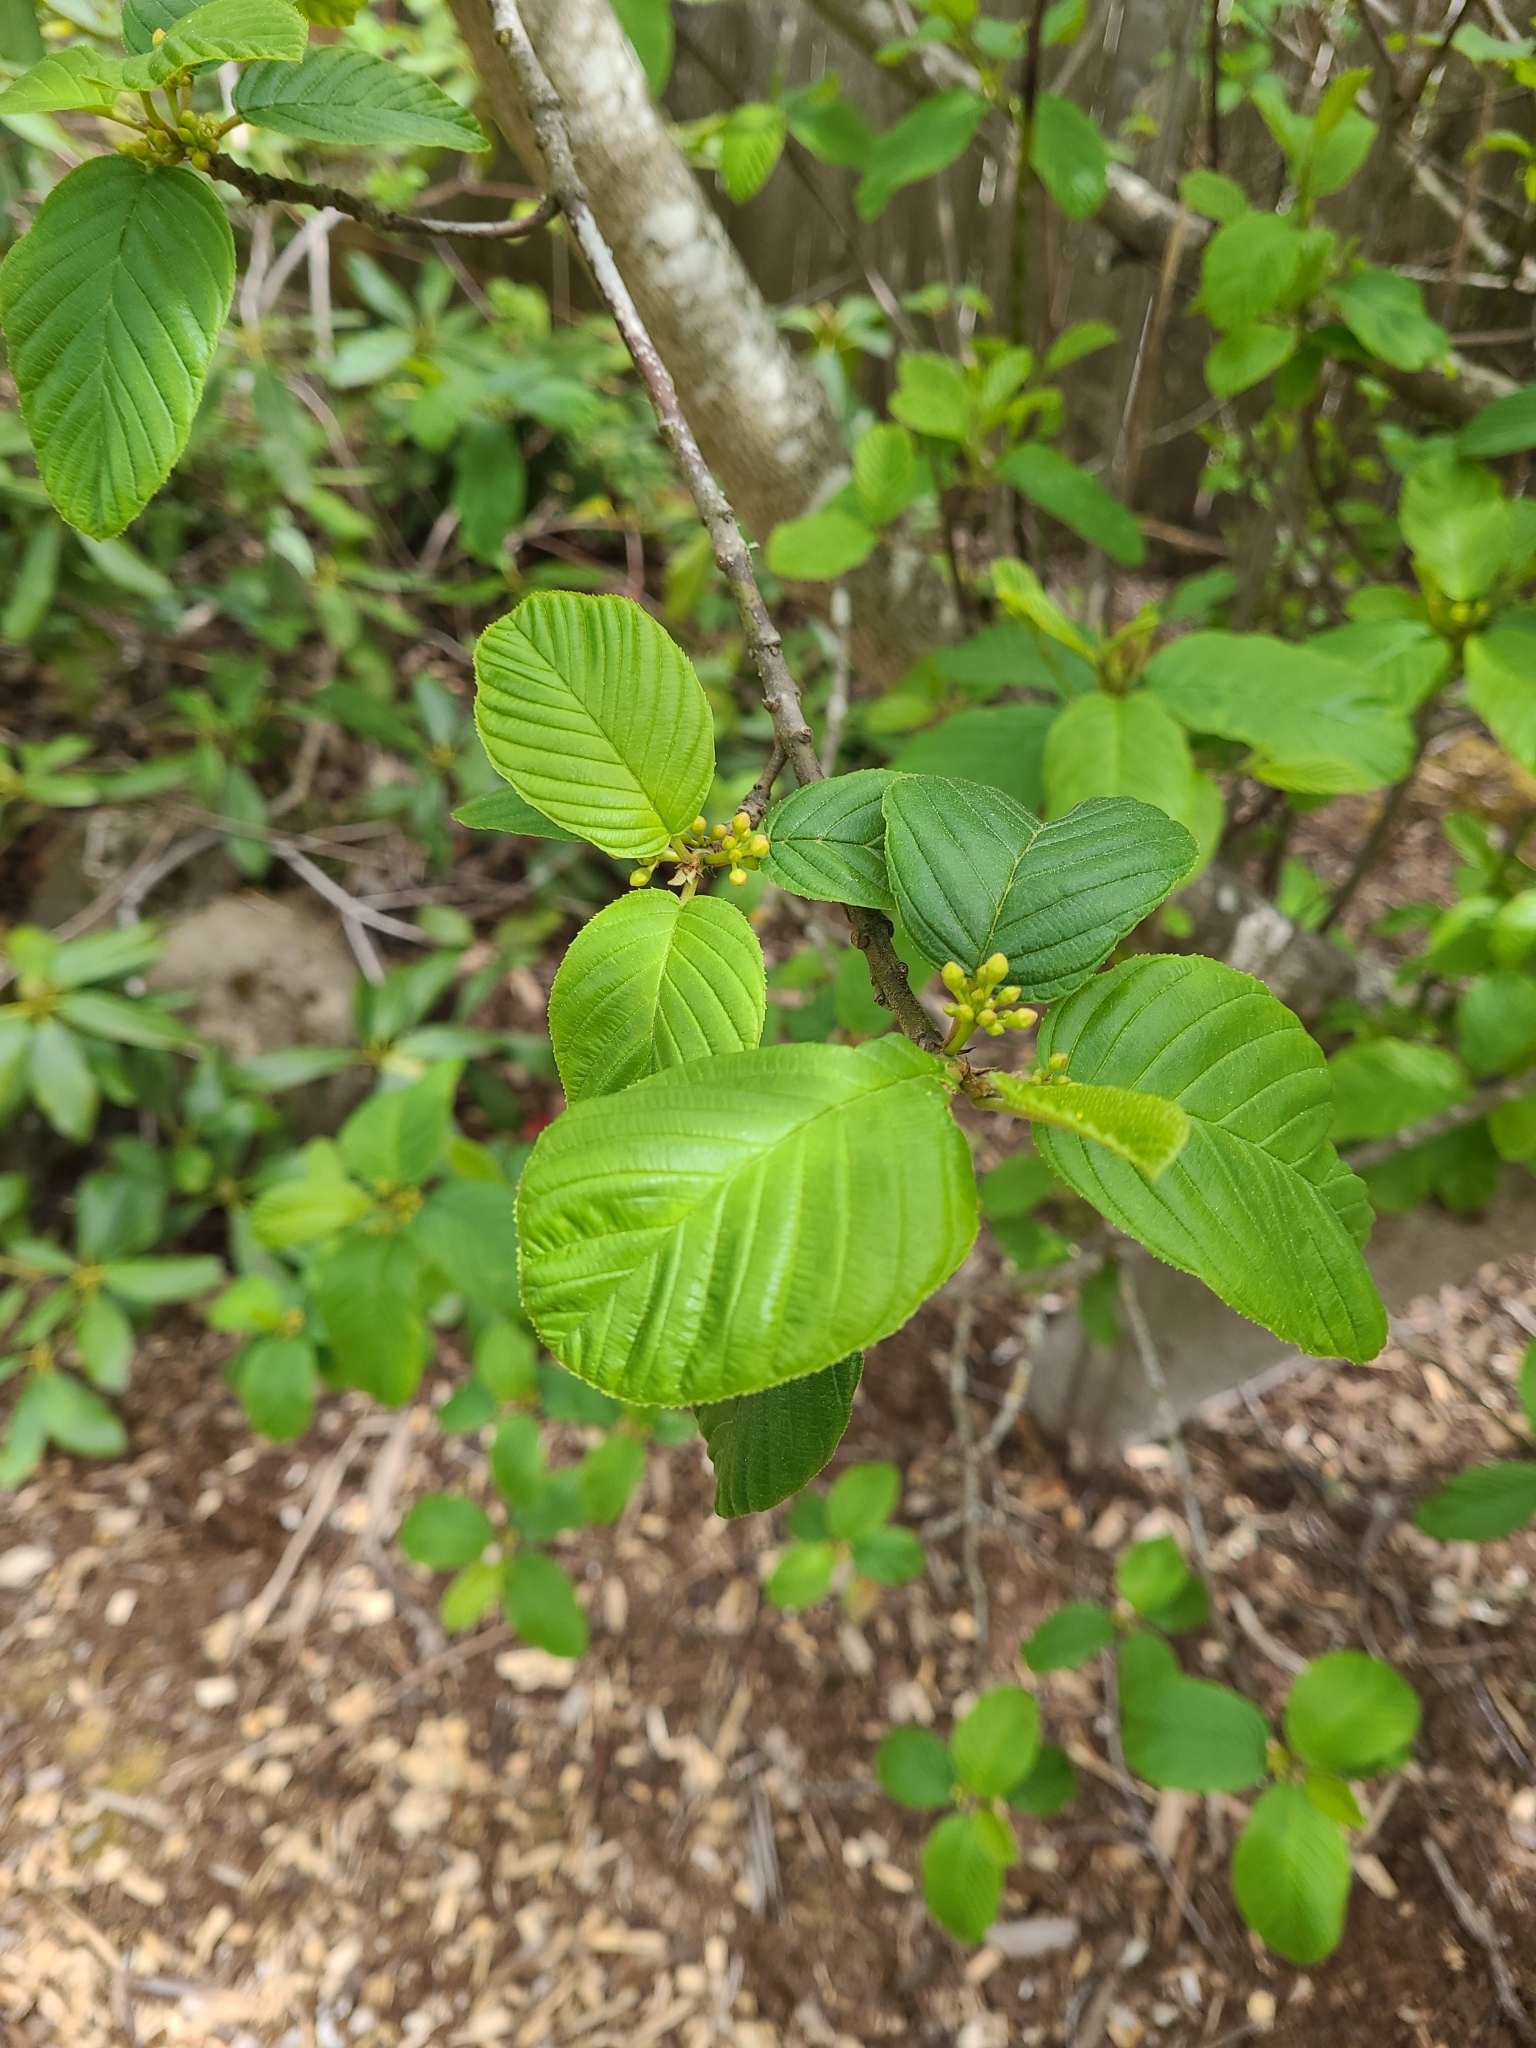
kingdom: Plantae
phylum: Tracheophyta
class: Magnoliopsida
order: Rosales
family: Rhamnaceae
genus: Frangula
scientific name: Frangula purshiana
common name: Cascara buckthorn
